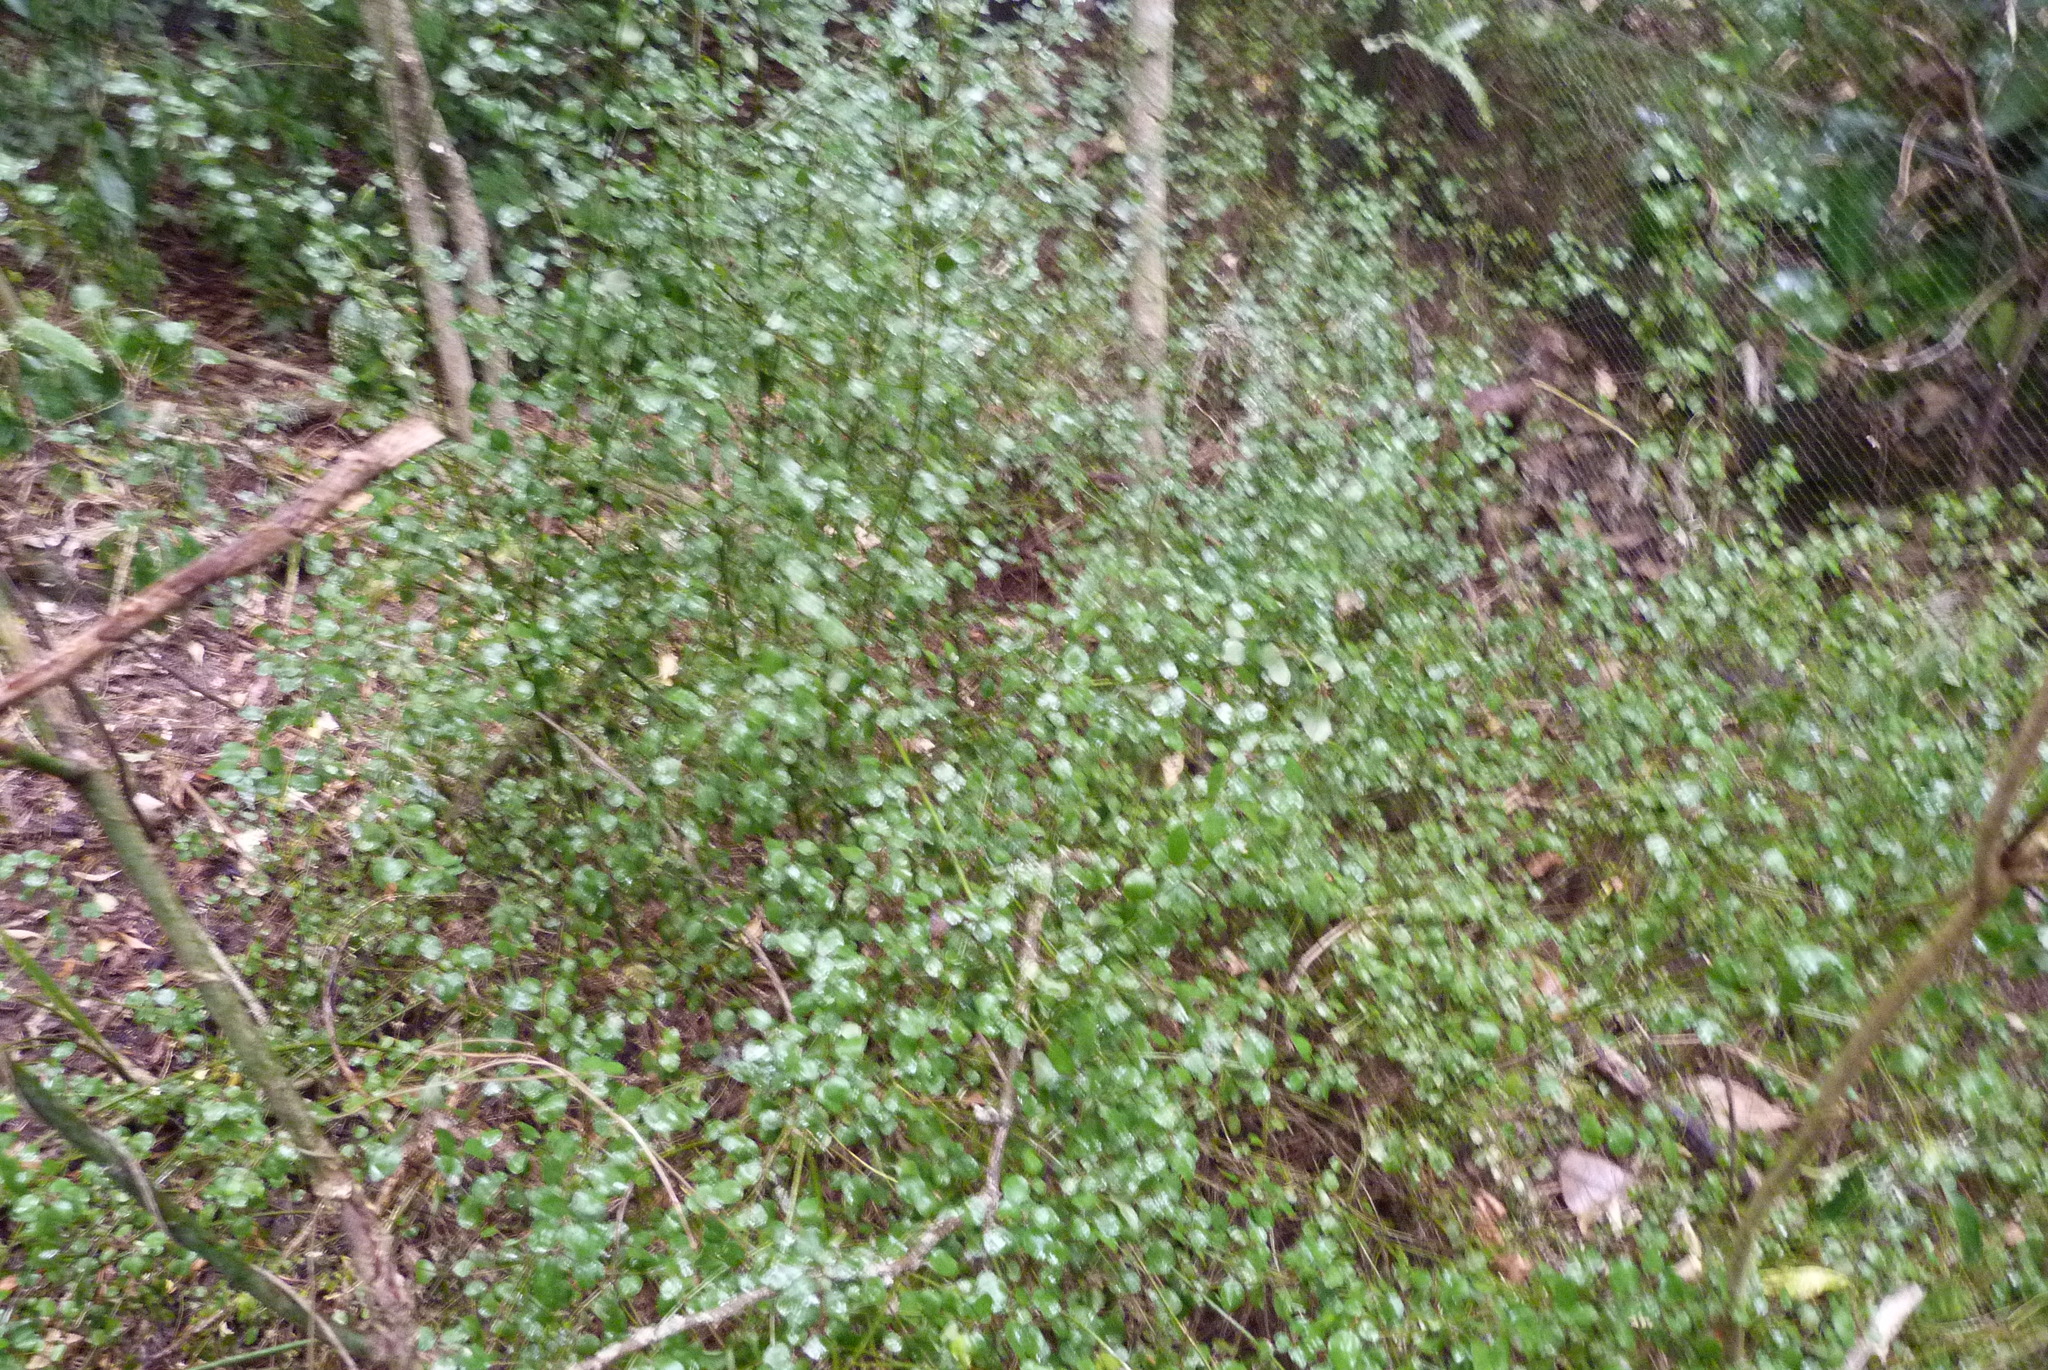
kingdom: Plantae
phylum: Tracheophyta
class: Magnoliopsida
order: Lamiales
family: Lamiaceae
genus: Teucrium
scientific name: Teucrium parvifolium
